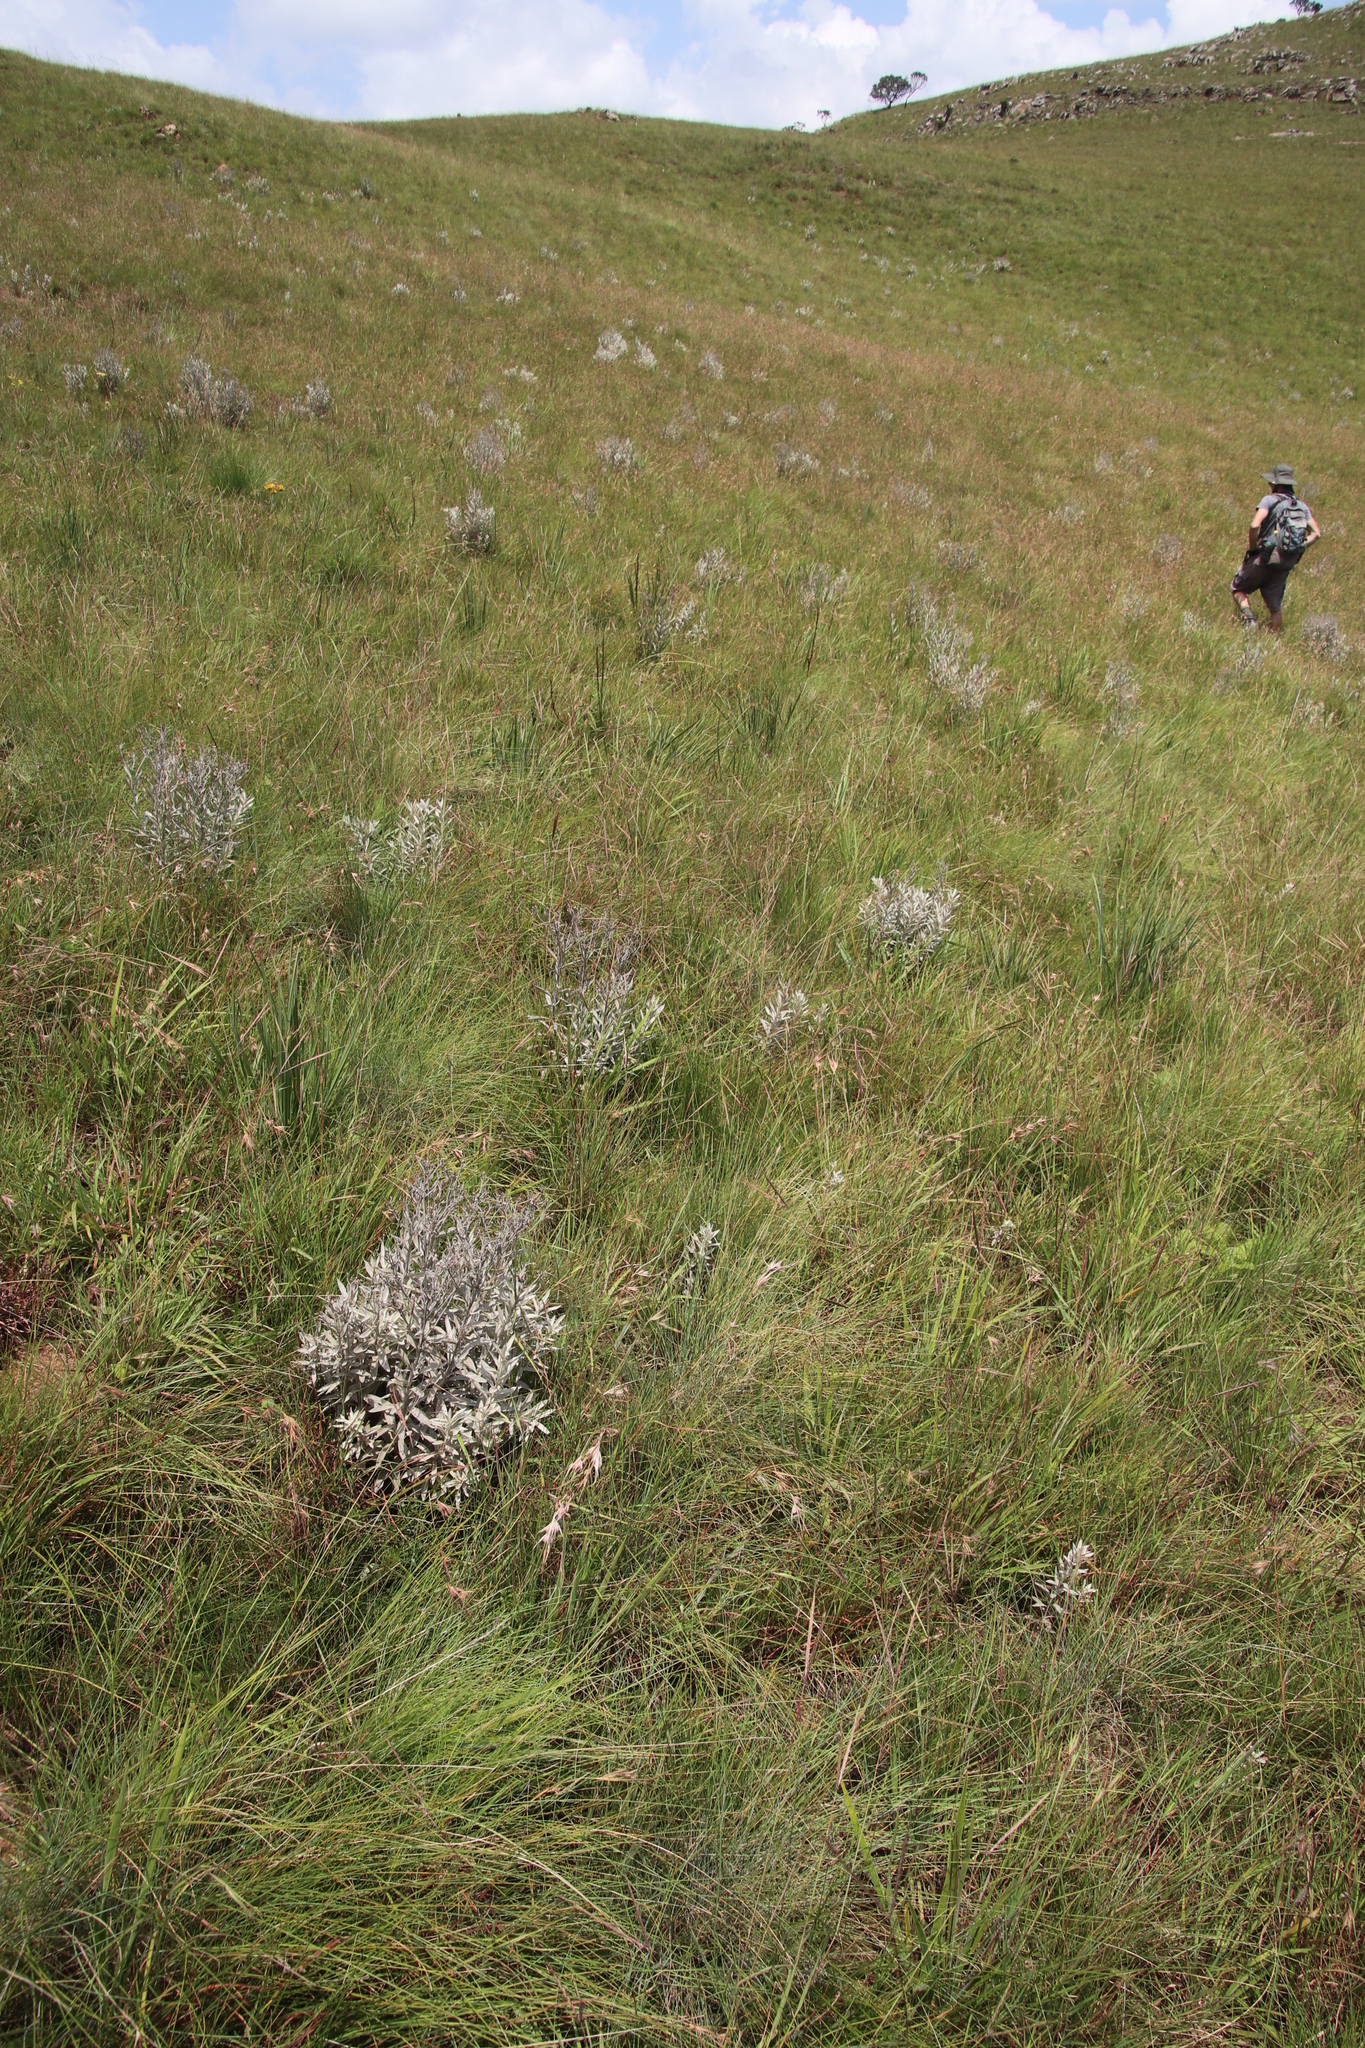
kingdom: Plantae
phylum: Tracheophyta
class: Magnoliopsida
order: Asterales
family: Asteraceae
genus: Hilliardiella
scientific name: Hilliardiella aristata
